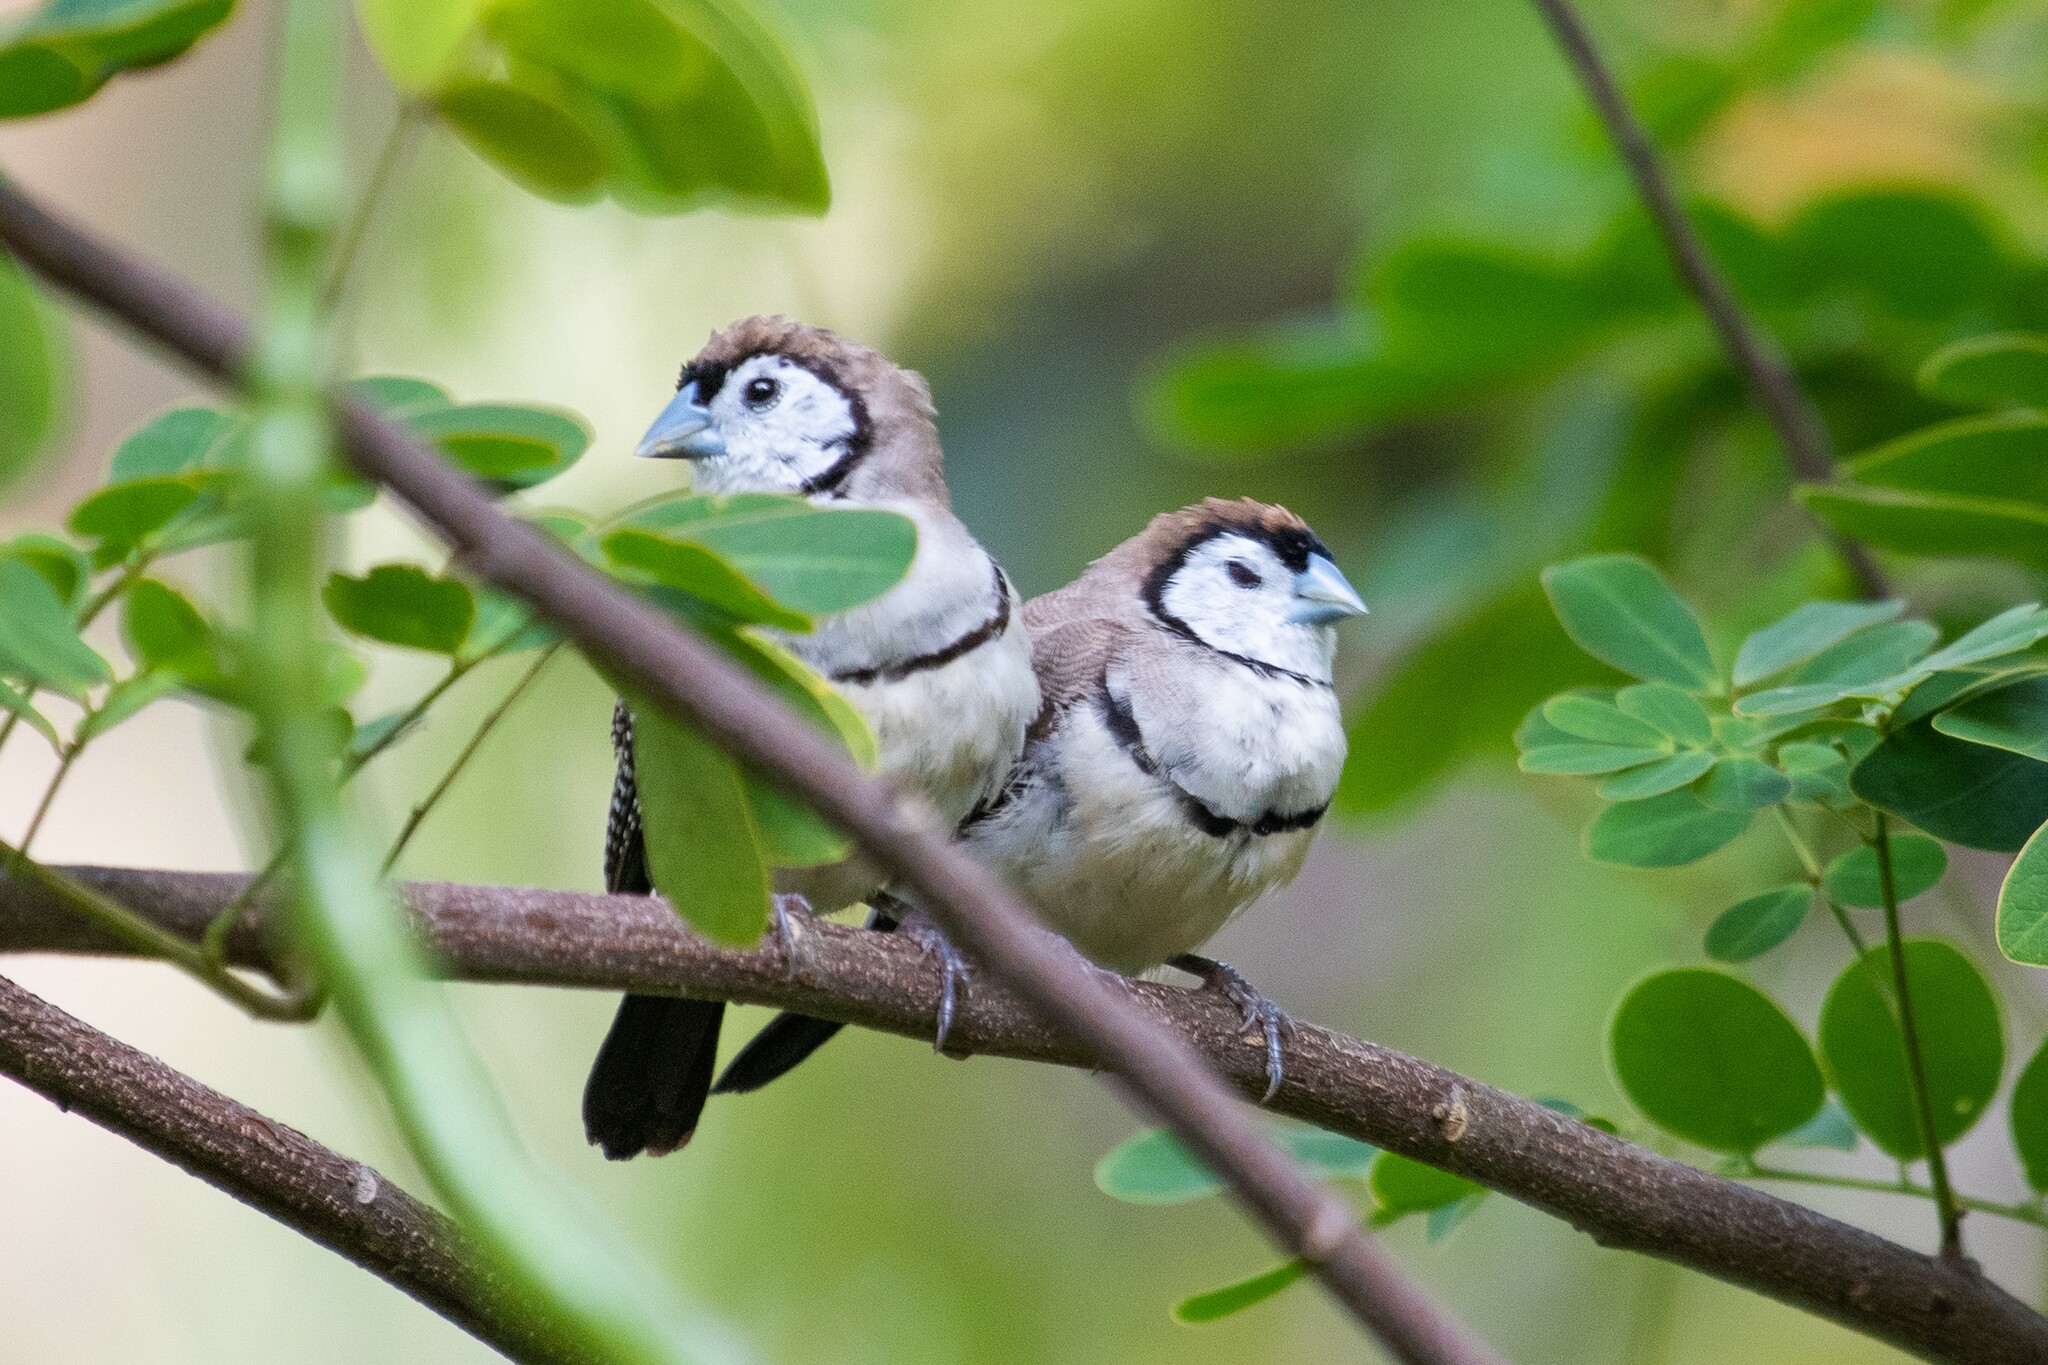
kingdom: Animalia
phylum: Chordata
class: Aves
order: Passeriformes
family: Estrildidae
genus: Taeniopygia
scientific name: Taeniopygia bichenovii
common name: Double-barred finch
